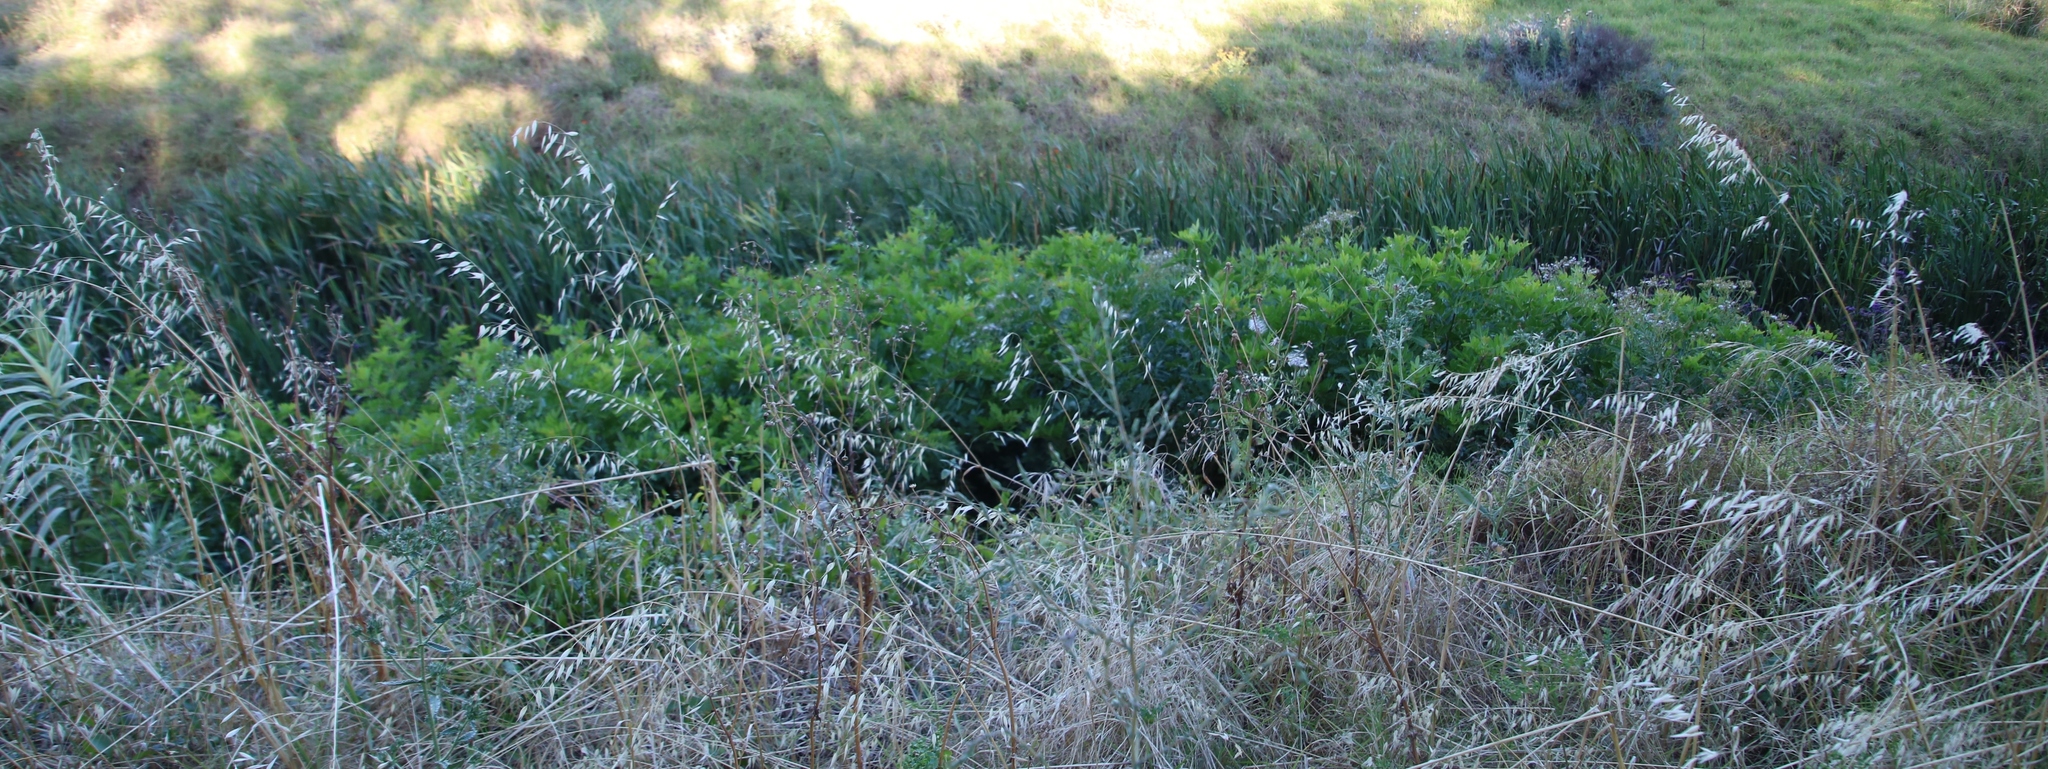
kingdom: Plantae
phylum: Tracheophyta
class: Magnoliopsida
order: Sapindales
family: Anacardiaceae
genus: Schinus
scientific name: Schinus terebinthifolia
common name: Brazilian peppertree
